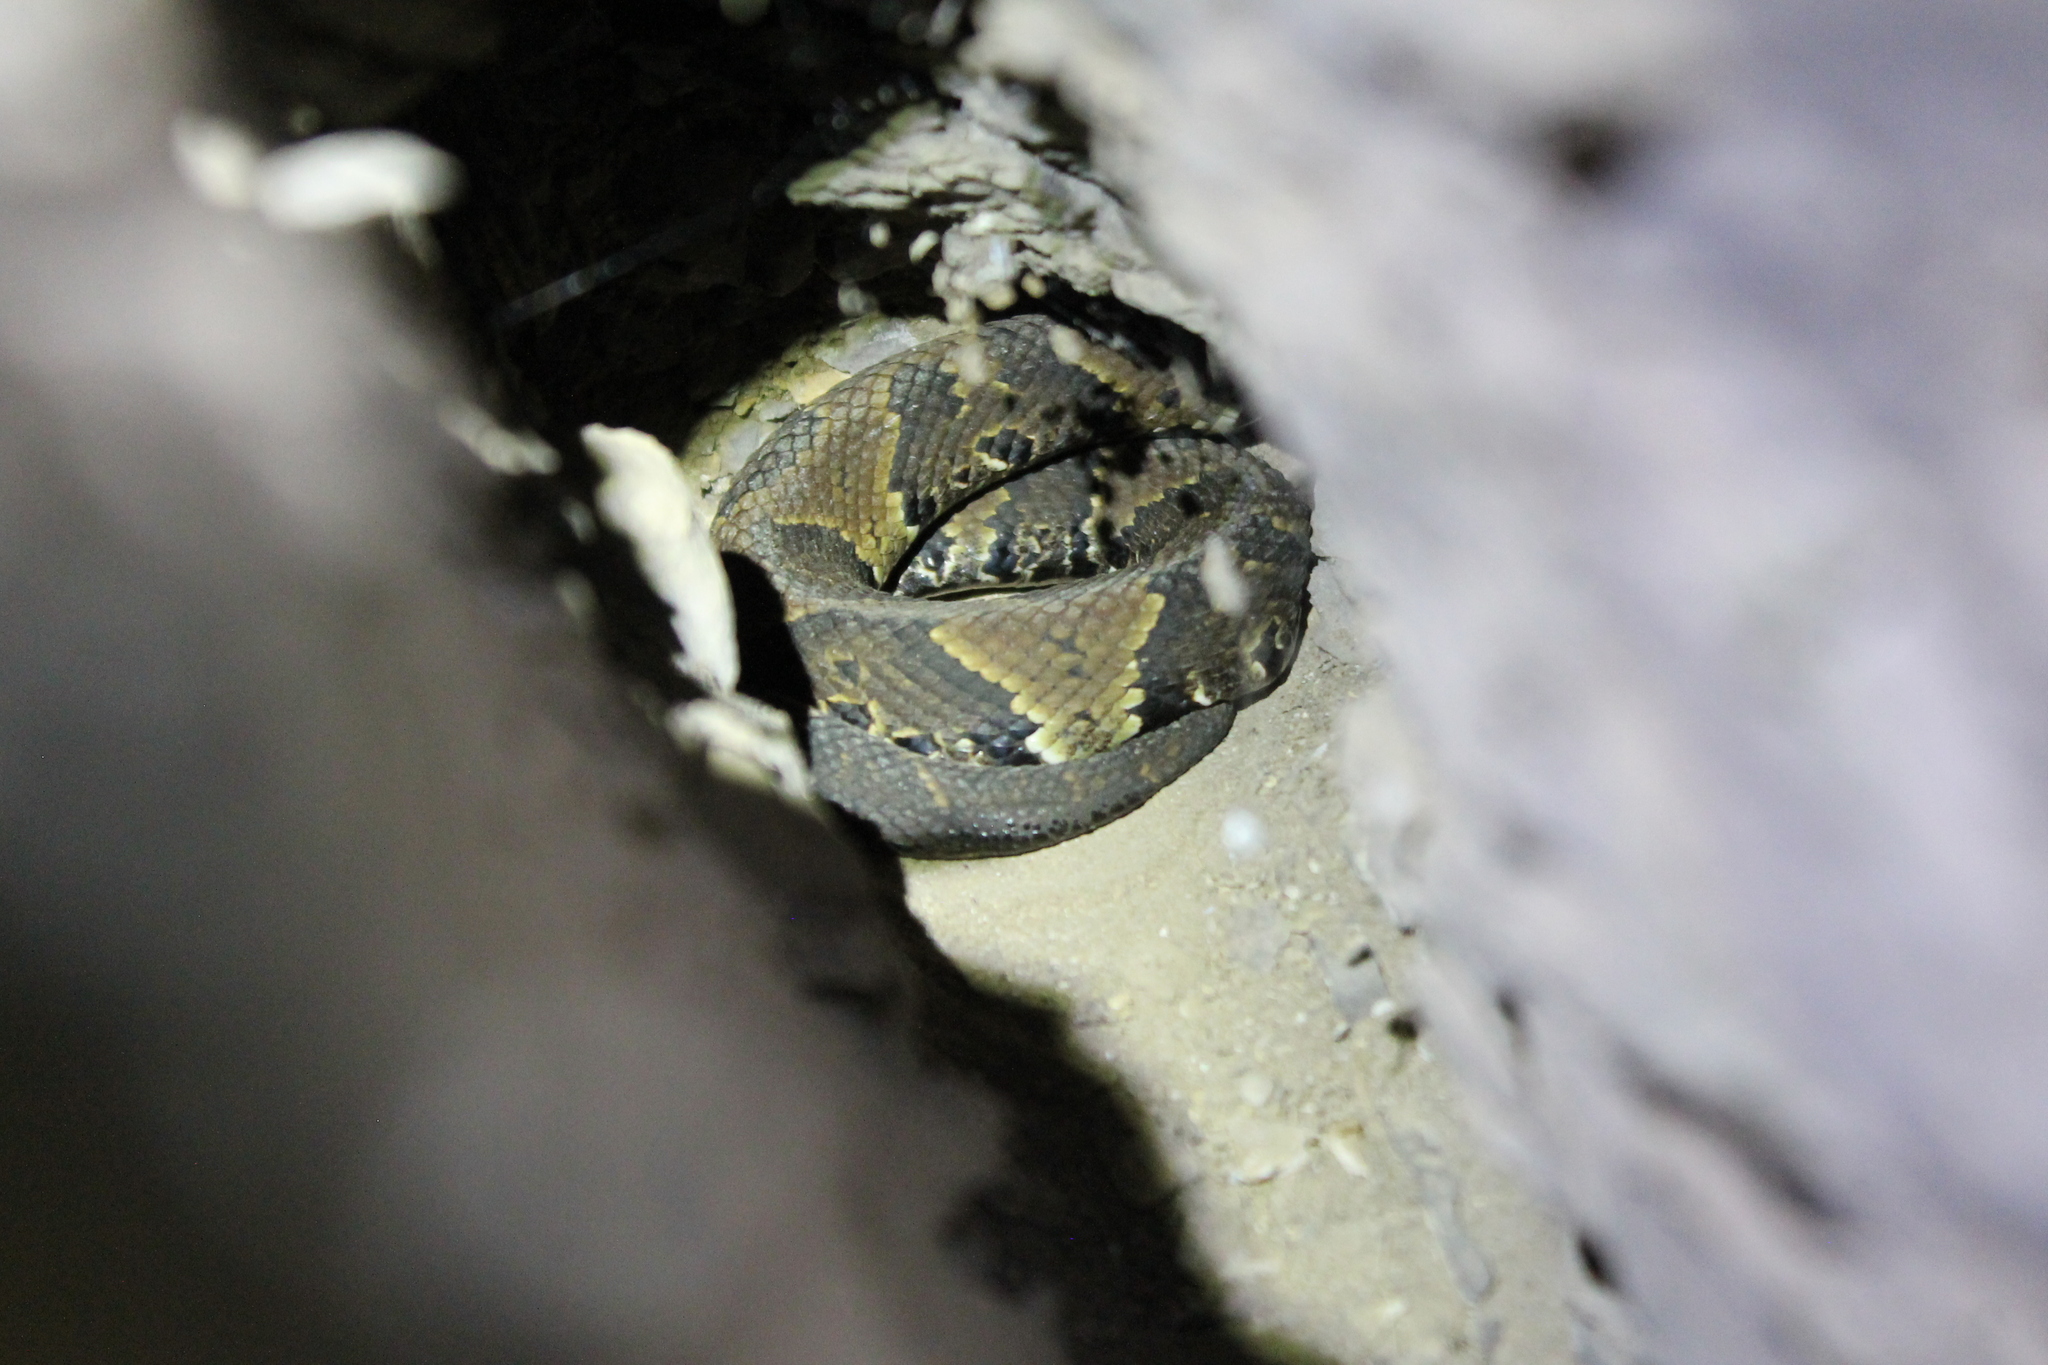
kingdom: Animalia
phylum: Chordata
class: Squamata
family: Viperidae
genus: Agkistrodon
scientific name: Agkistrodon piscivorus
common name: Cottonmouth
